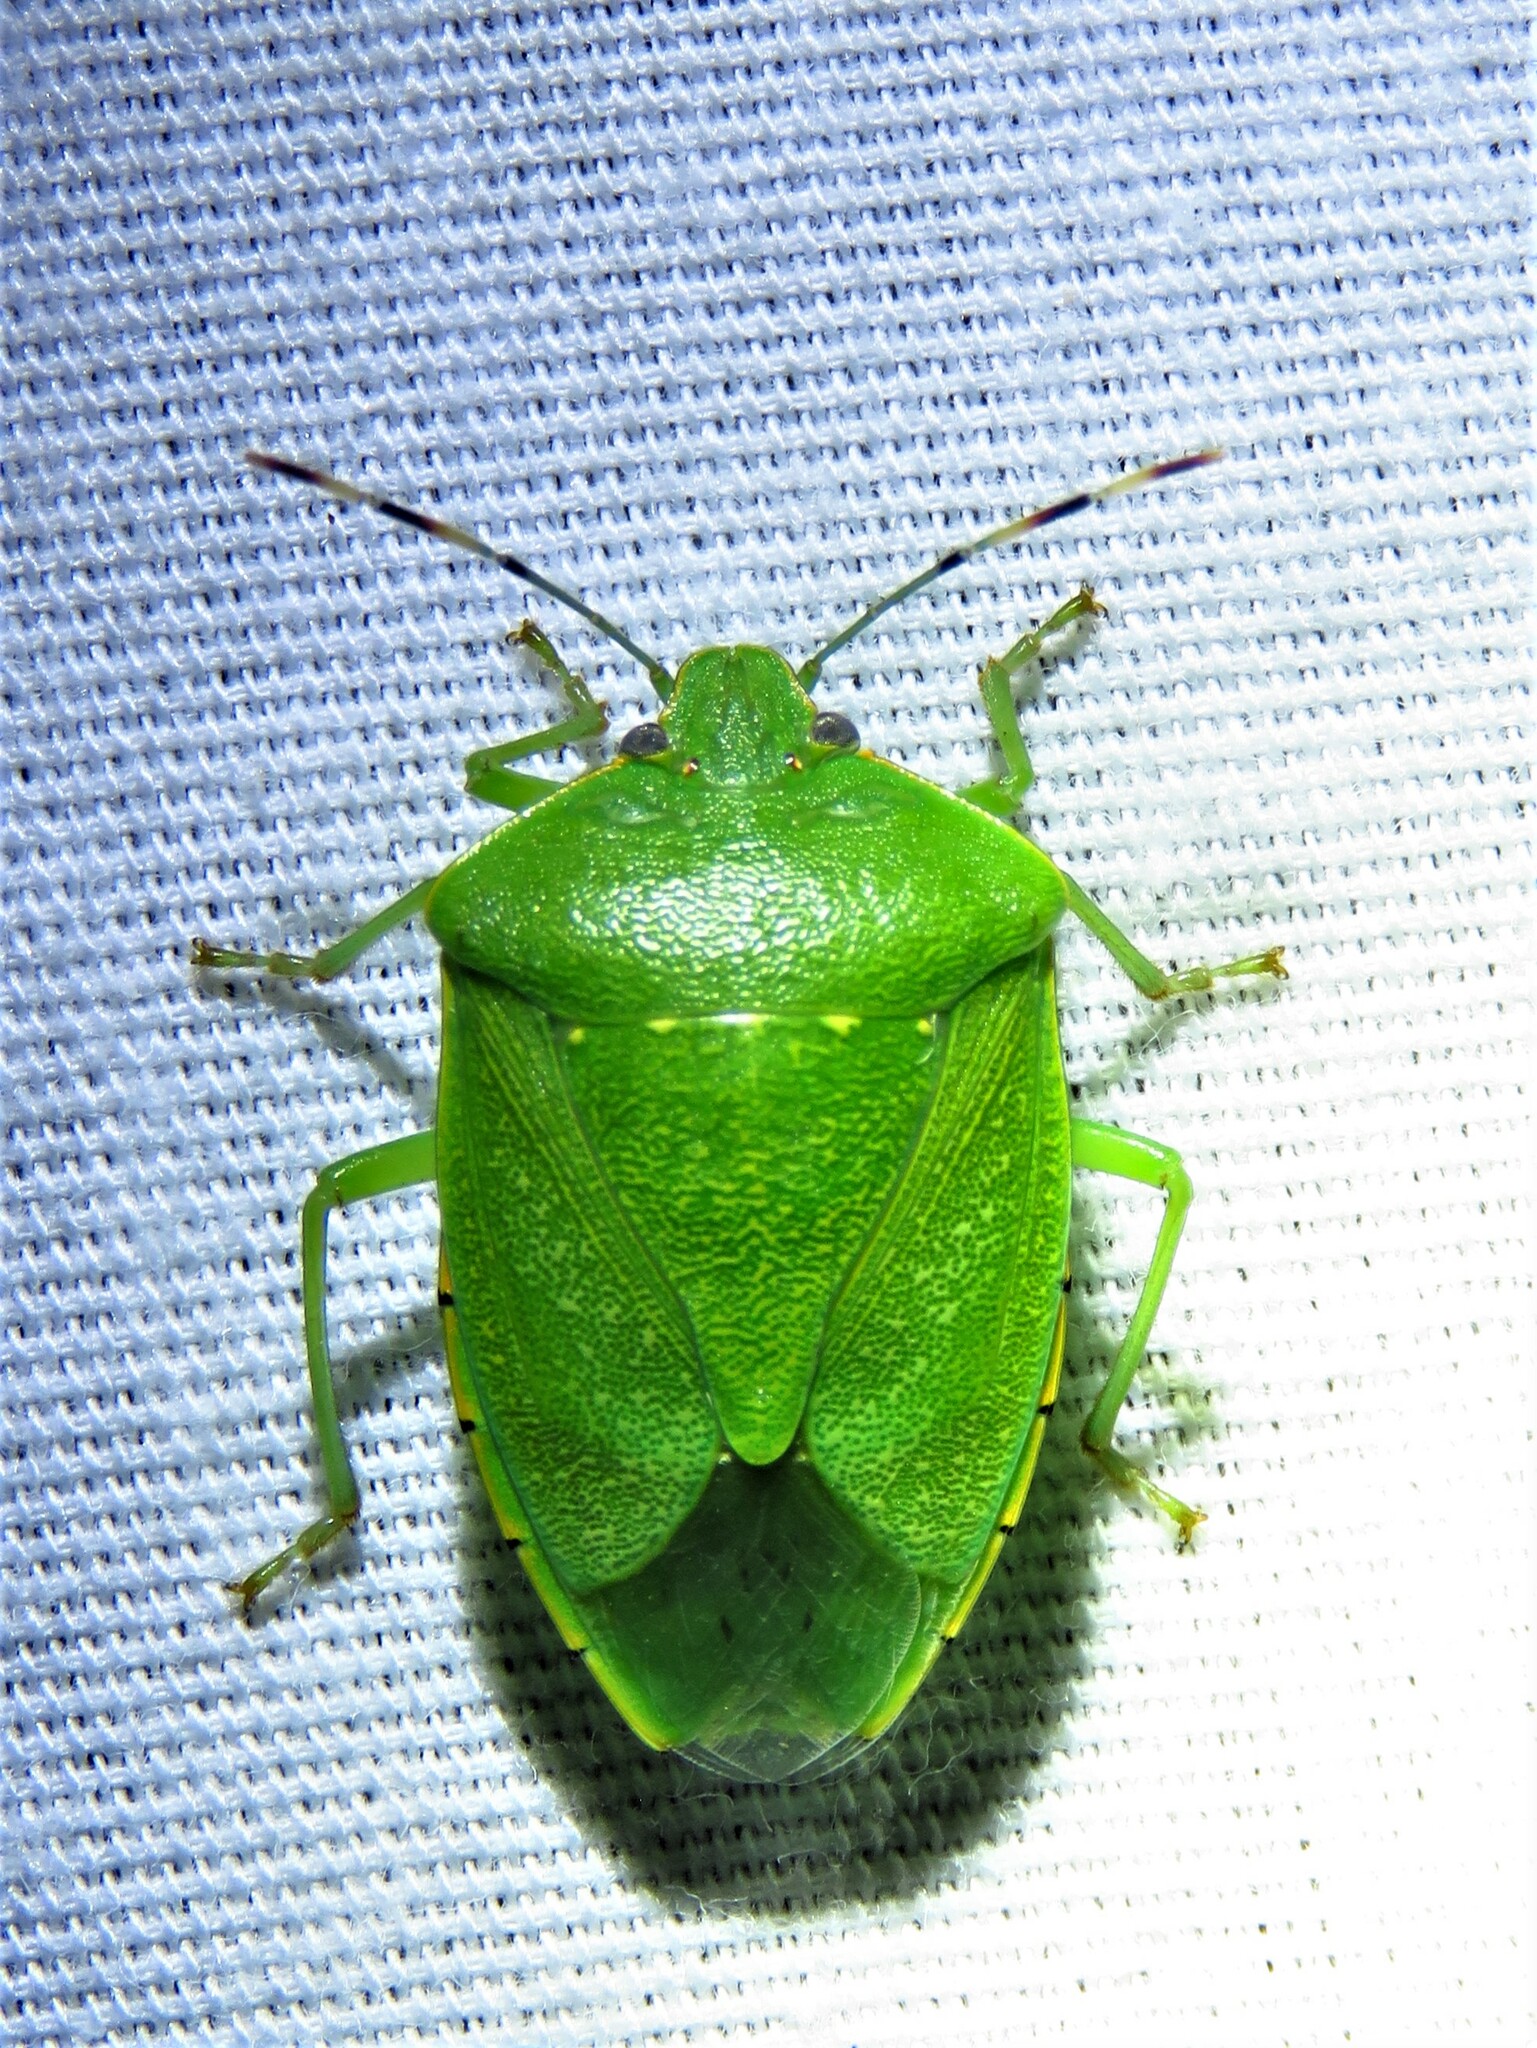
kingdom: Animalia
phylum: Arthropoda
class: Insecta
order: Hemiptera
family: Pentatomidae
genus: Chinavia
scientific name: Chinavia hilaris
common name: Green stink bug
